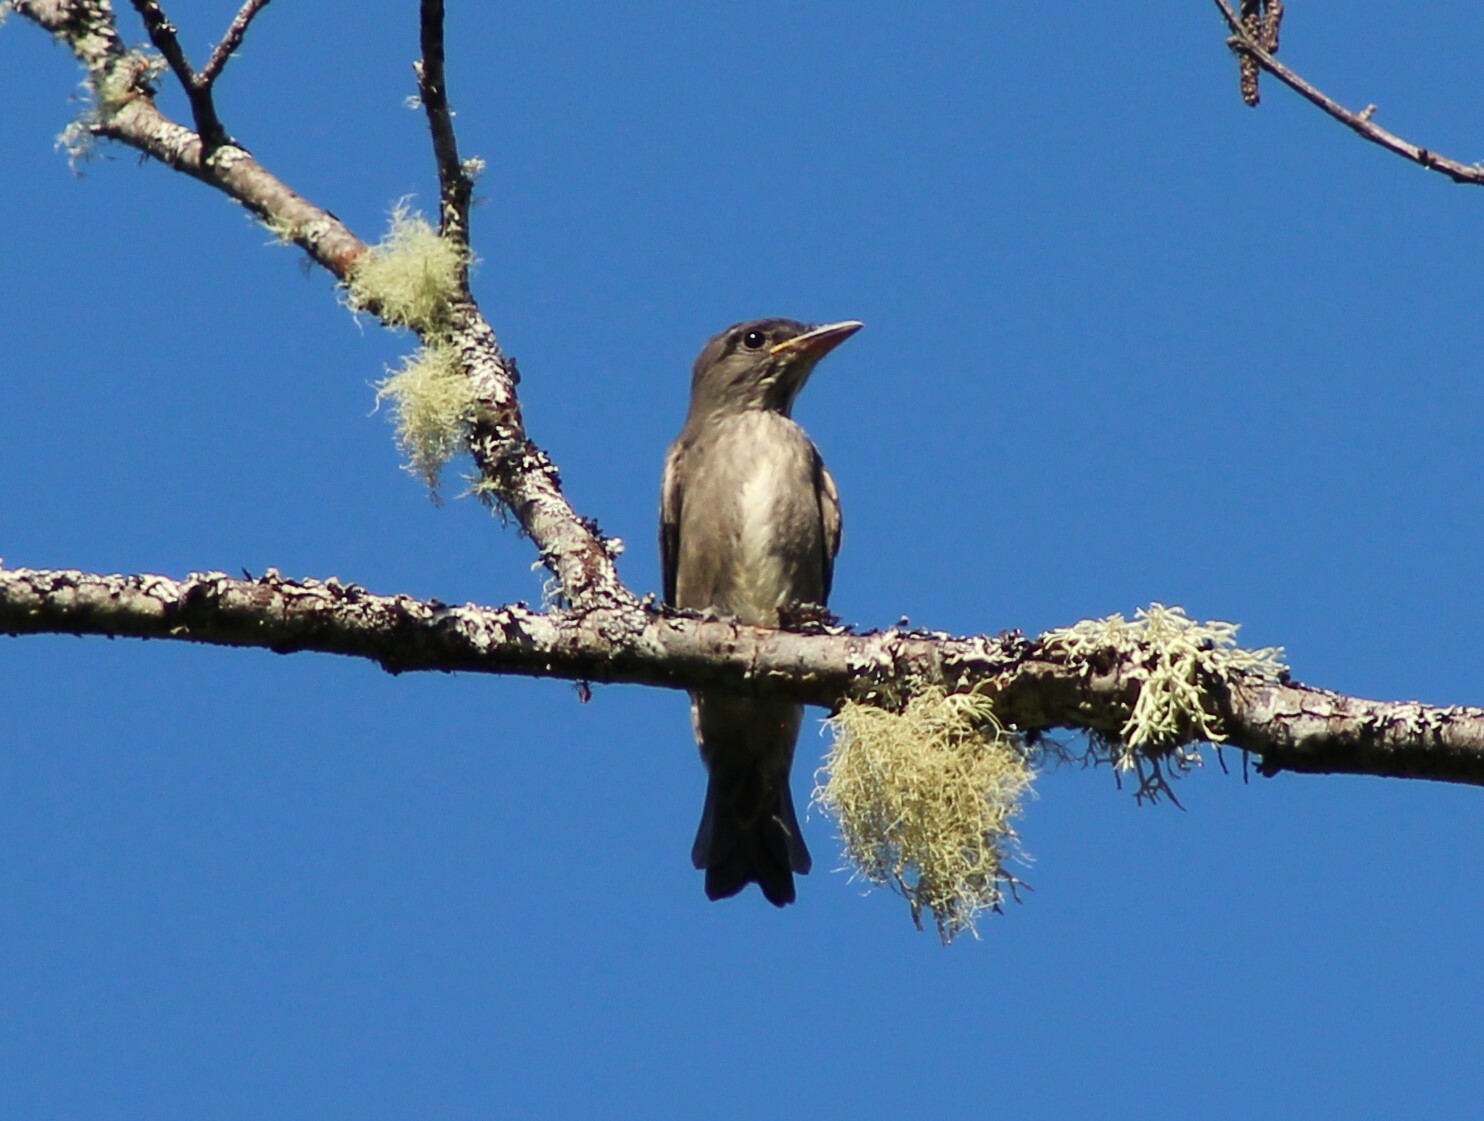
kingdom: Animalia
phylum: Chordata
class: Aves
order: Passeriformes
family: Tyrannidae
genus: Contopus
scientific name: Contopus cooperi
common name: Olive-sided flycatcher
